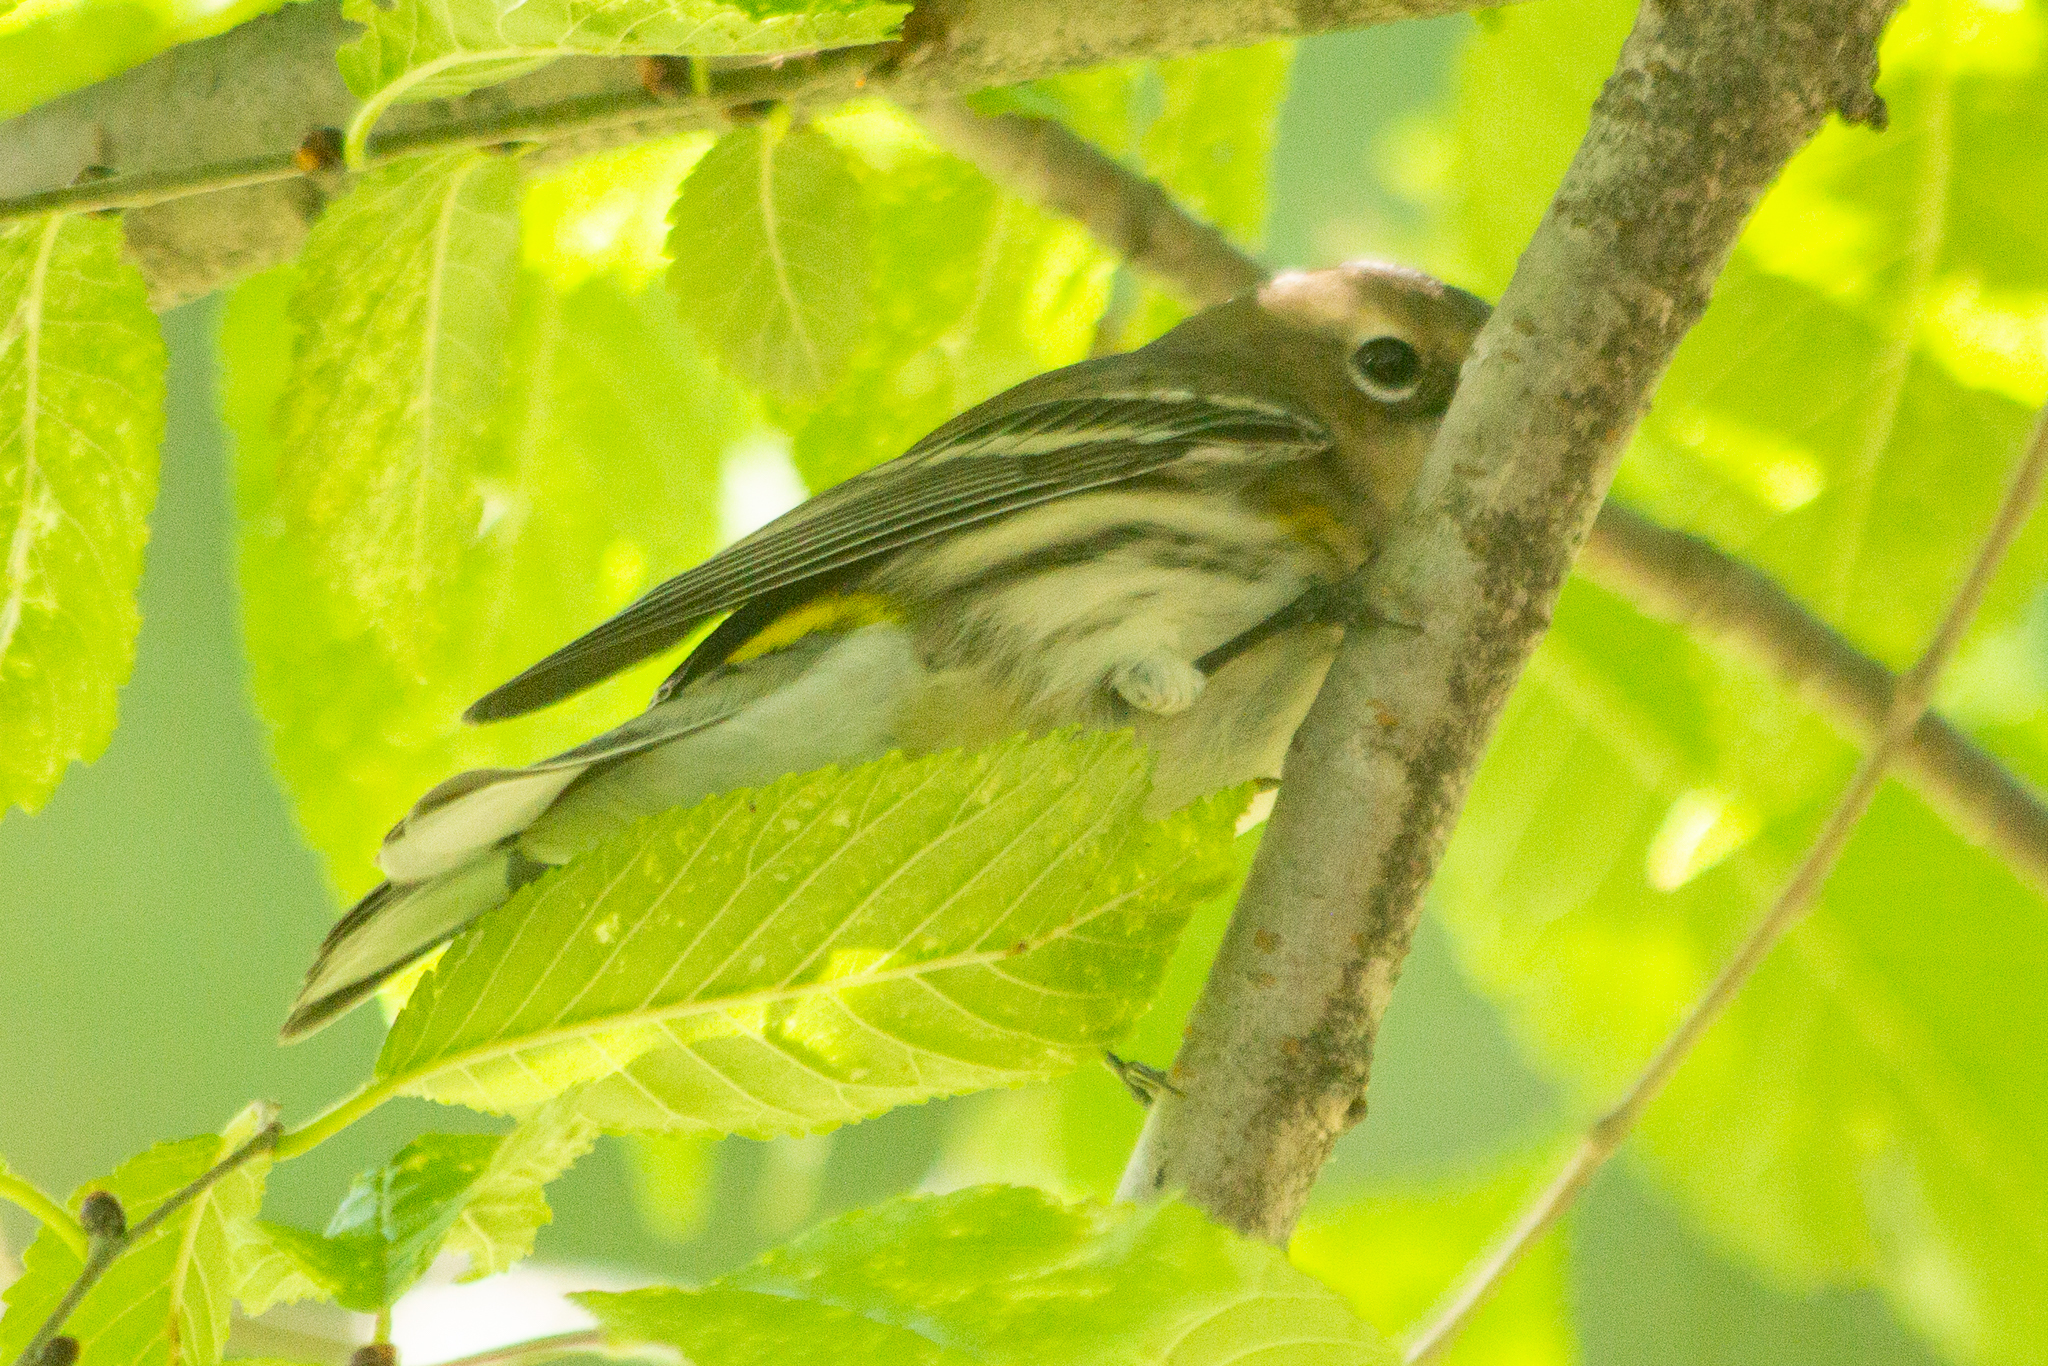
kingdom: Animalia
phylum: Chordata
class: Aves
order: Passeriformes
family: Parulidae
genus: Setophaga
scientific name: Setophaga coronata
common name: Myrtle warbler
